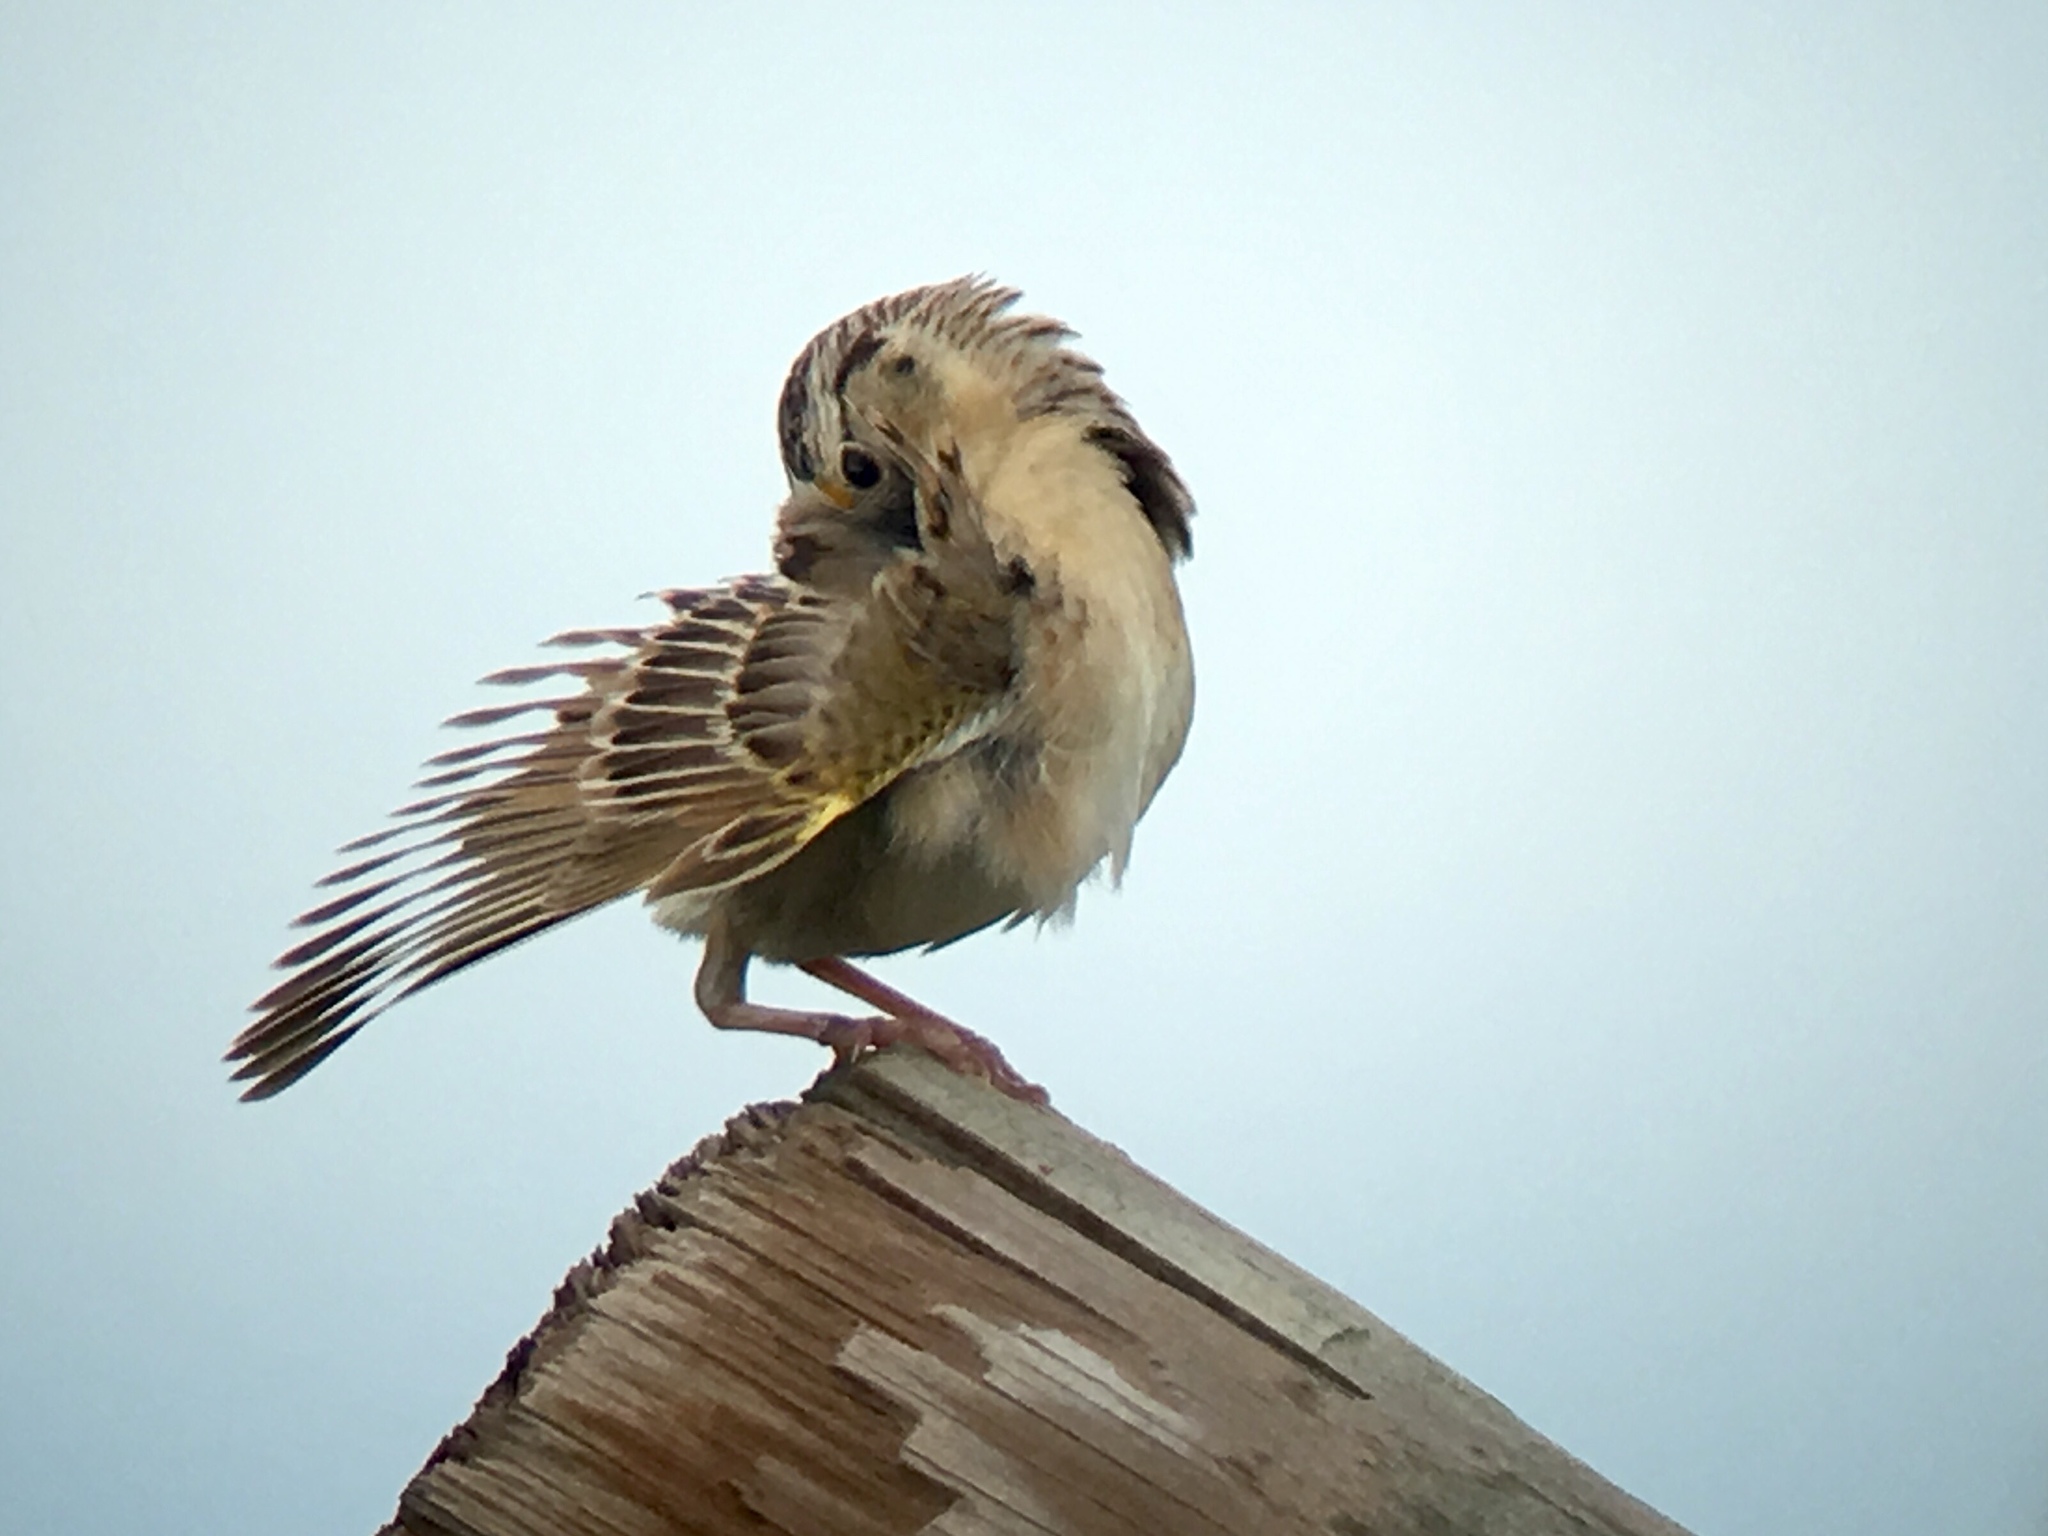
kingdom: Animalia
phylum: Chordata
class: Aves
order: Passeriformes
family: Passerellidae
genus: Ammodramus
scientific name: Ammodramus savannarum
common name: Grasshopper sparrow
